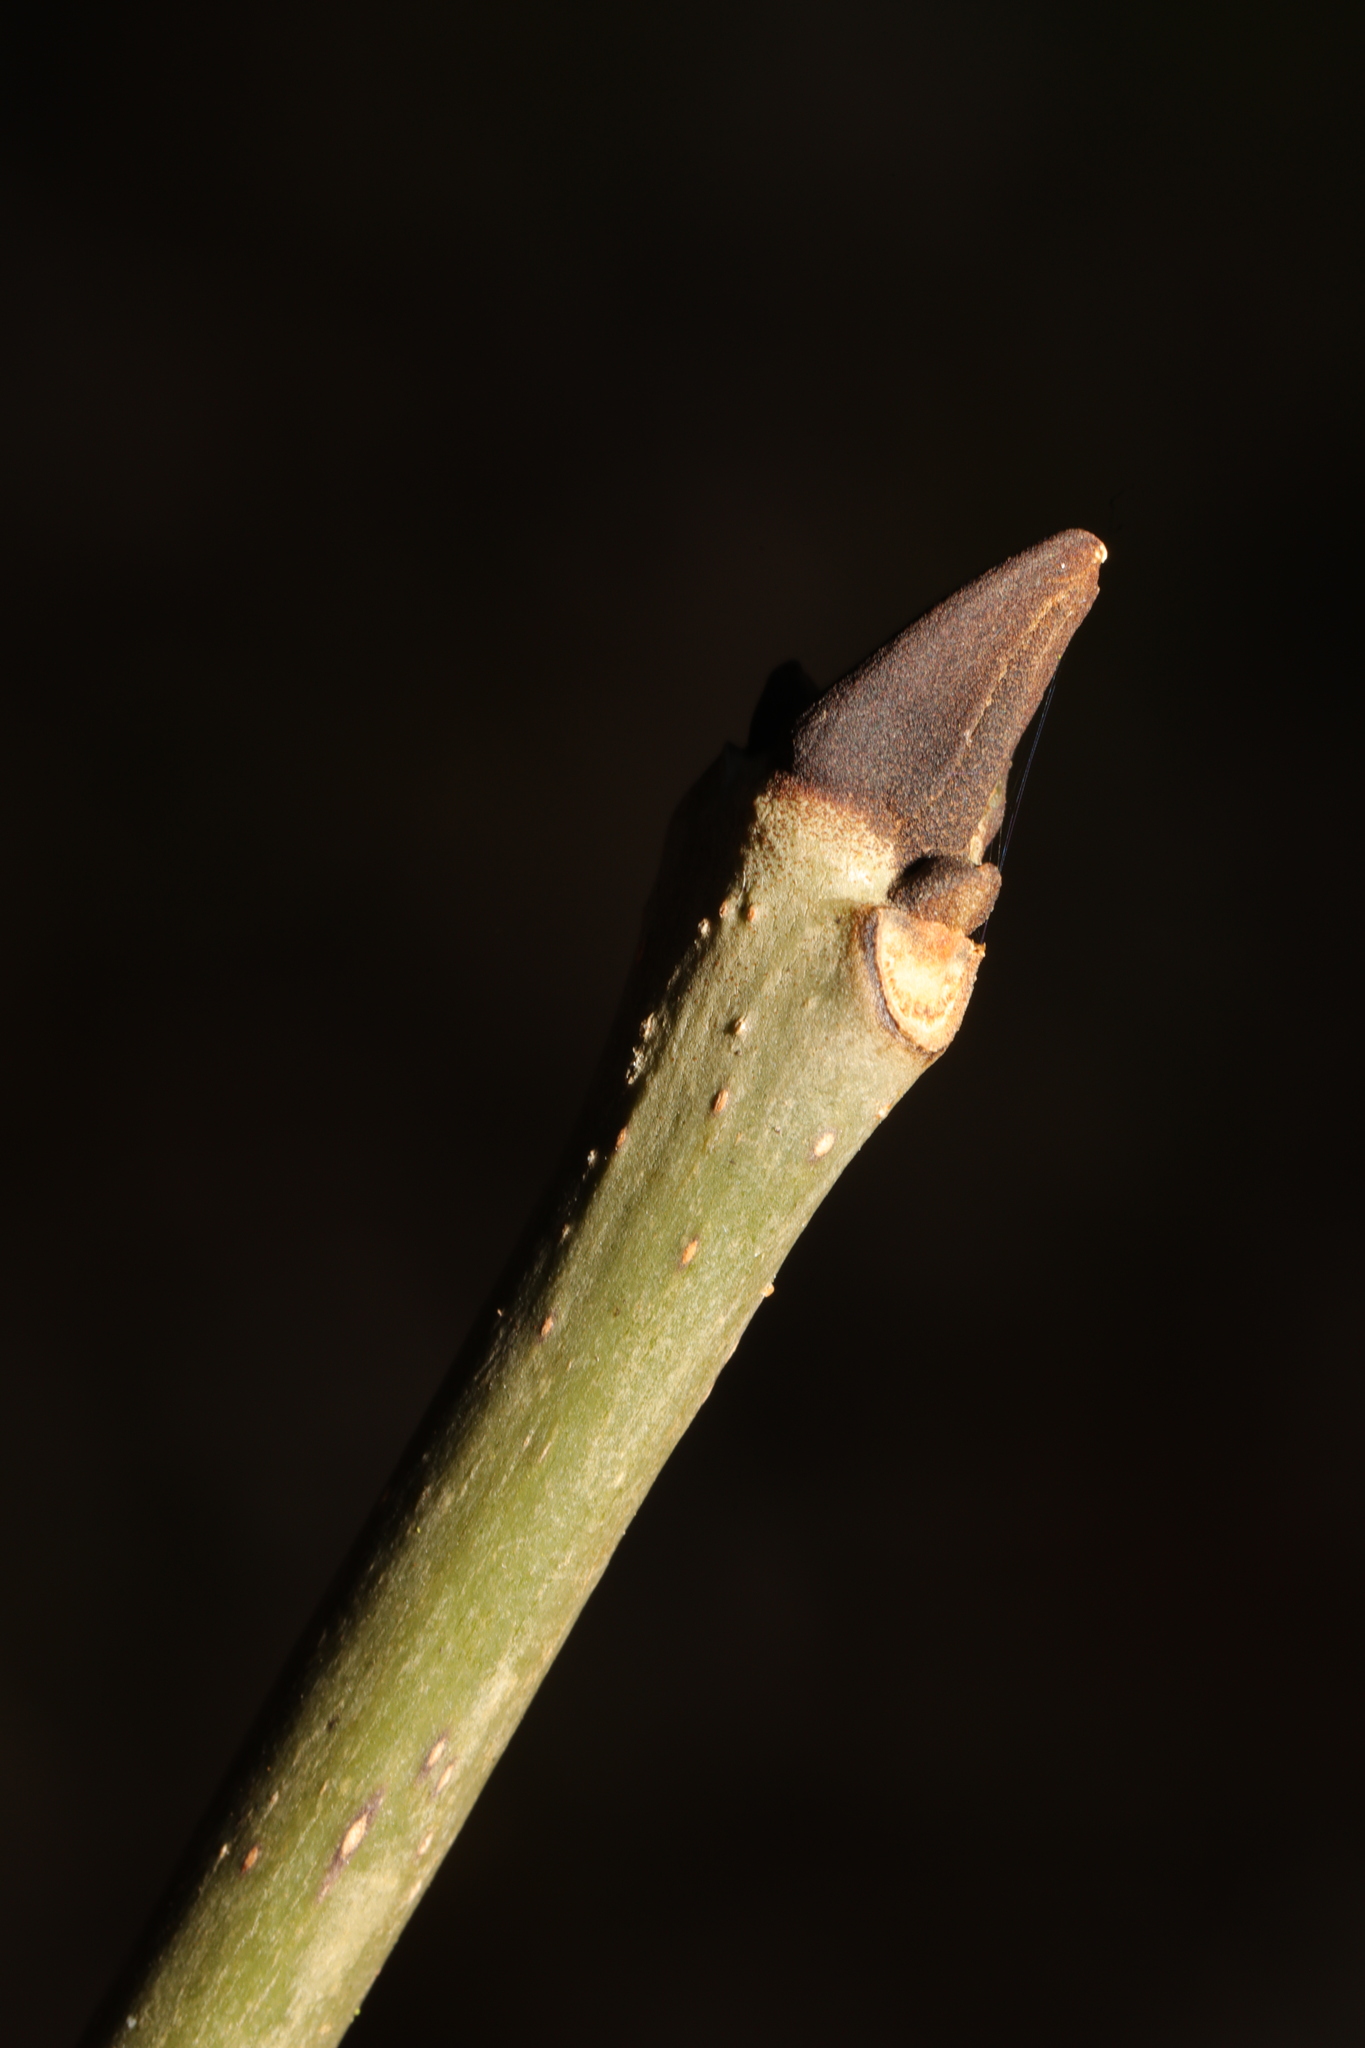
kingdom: Plantae
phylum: Tracheophyta
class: Magnoliopsida
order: Lamiales
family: Oleaceae
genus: Fraxinus
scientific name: Fraxinus excelsior
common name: European ash
